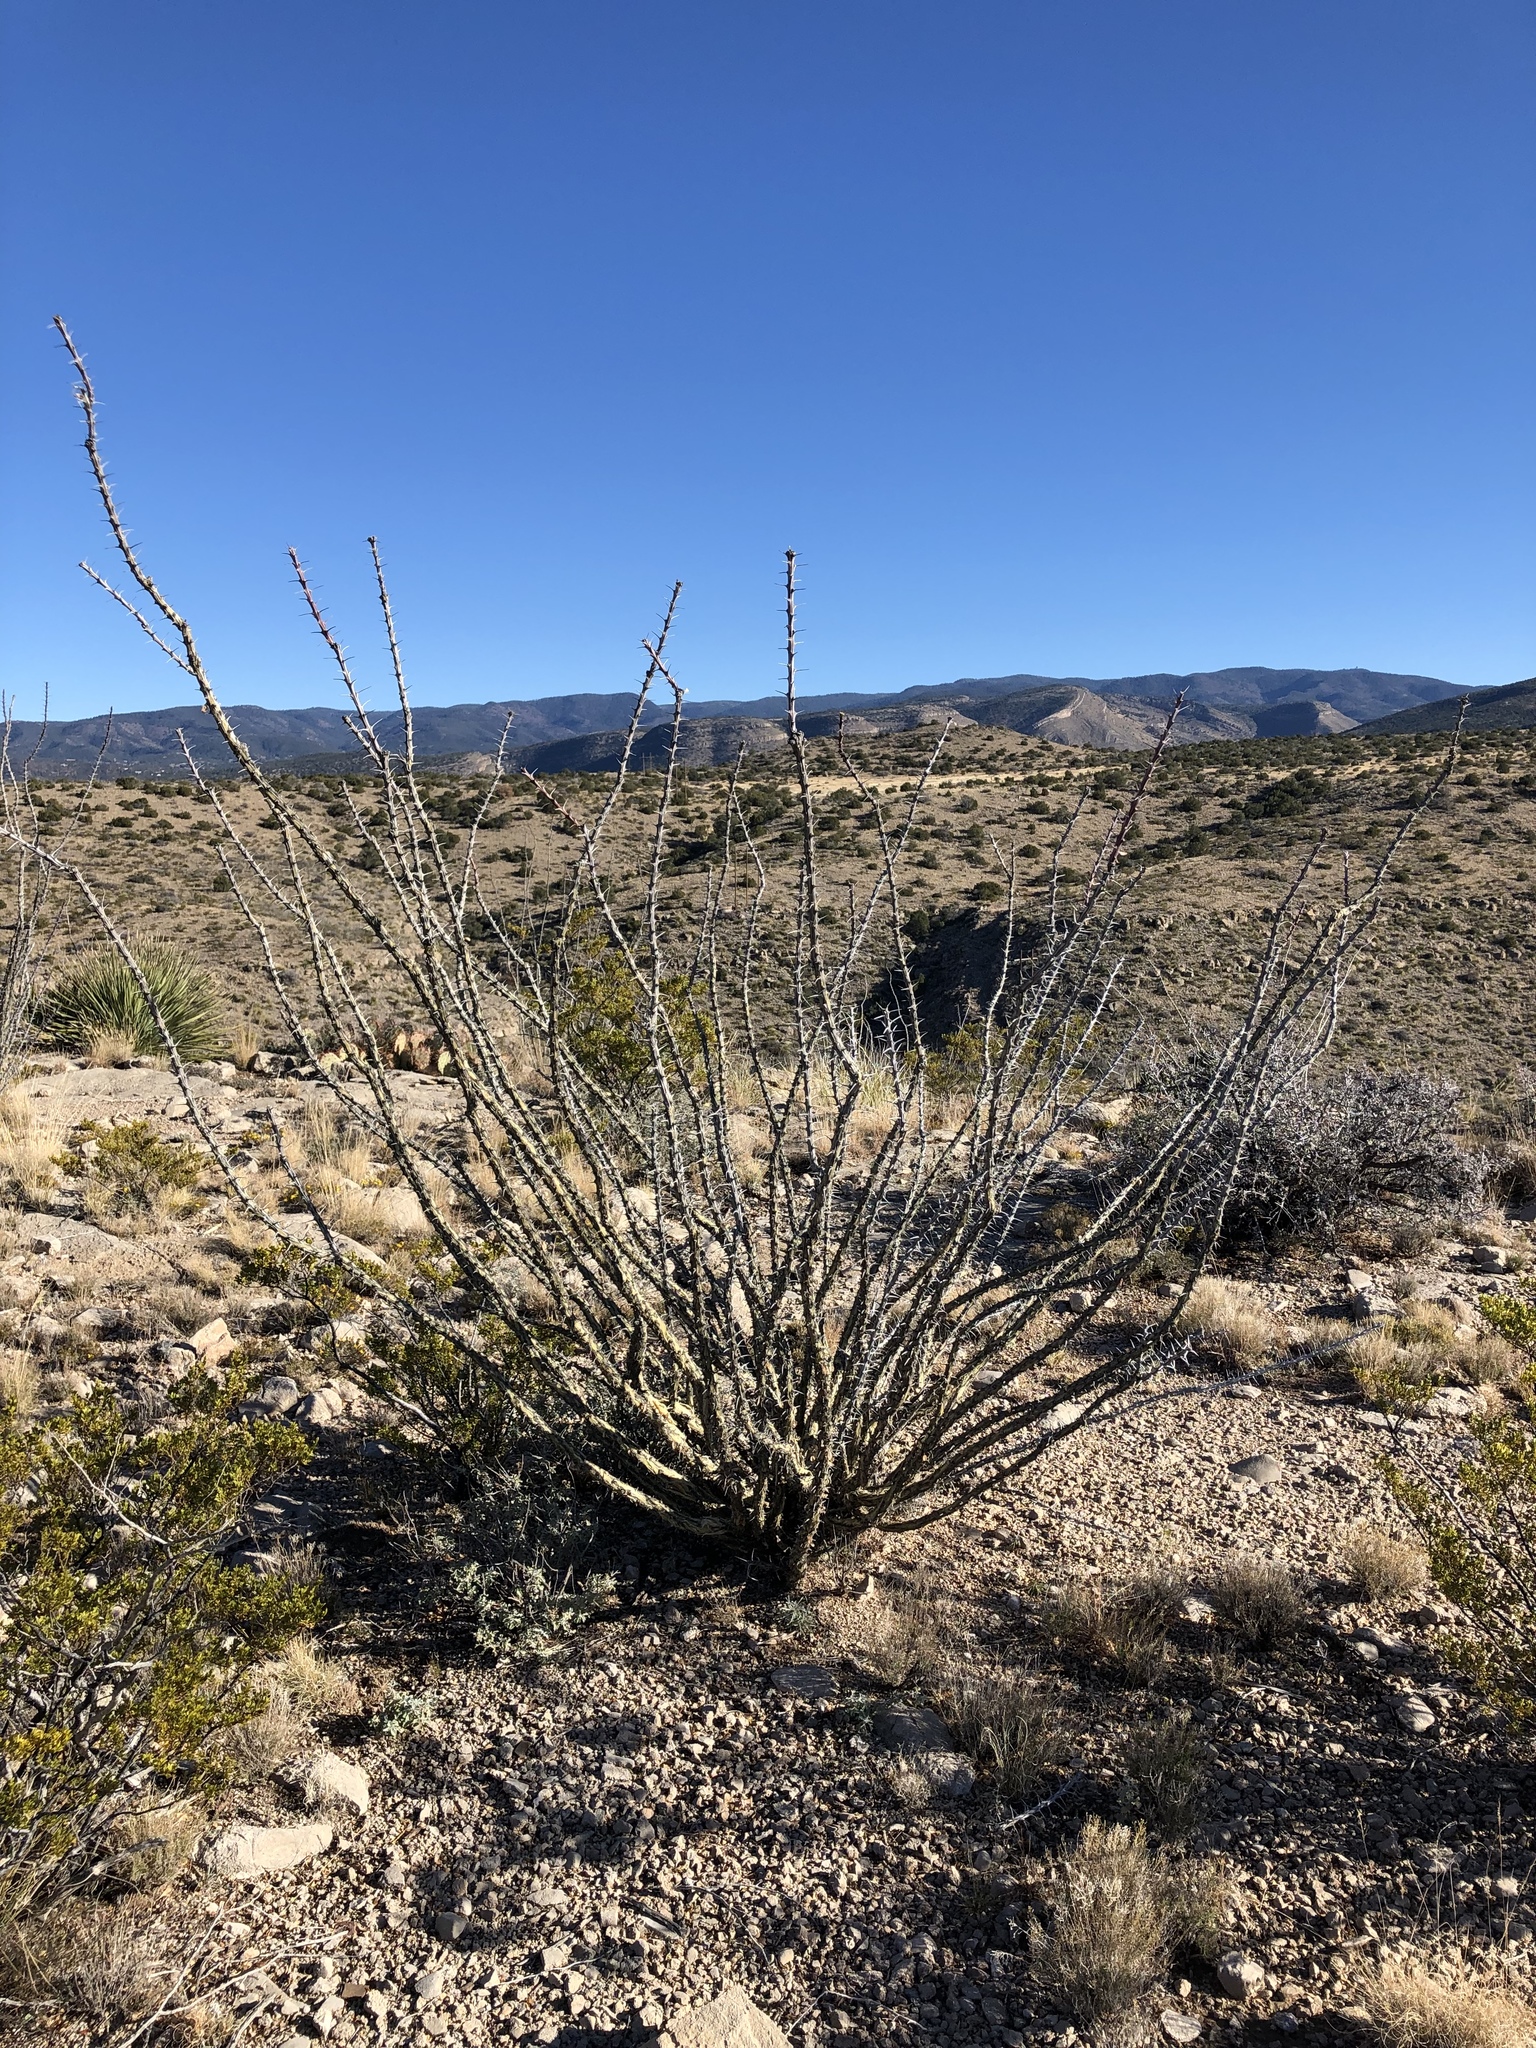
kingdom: Plantae
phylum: Tracheophyta
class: Magnoliopsida
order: Ericales
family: Fouquieriaceae
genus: Fouquieria
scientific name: Fouquieria splendens
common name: Vine-cactus
